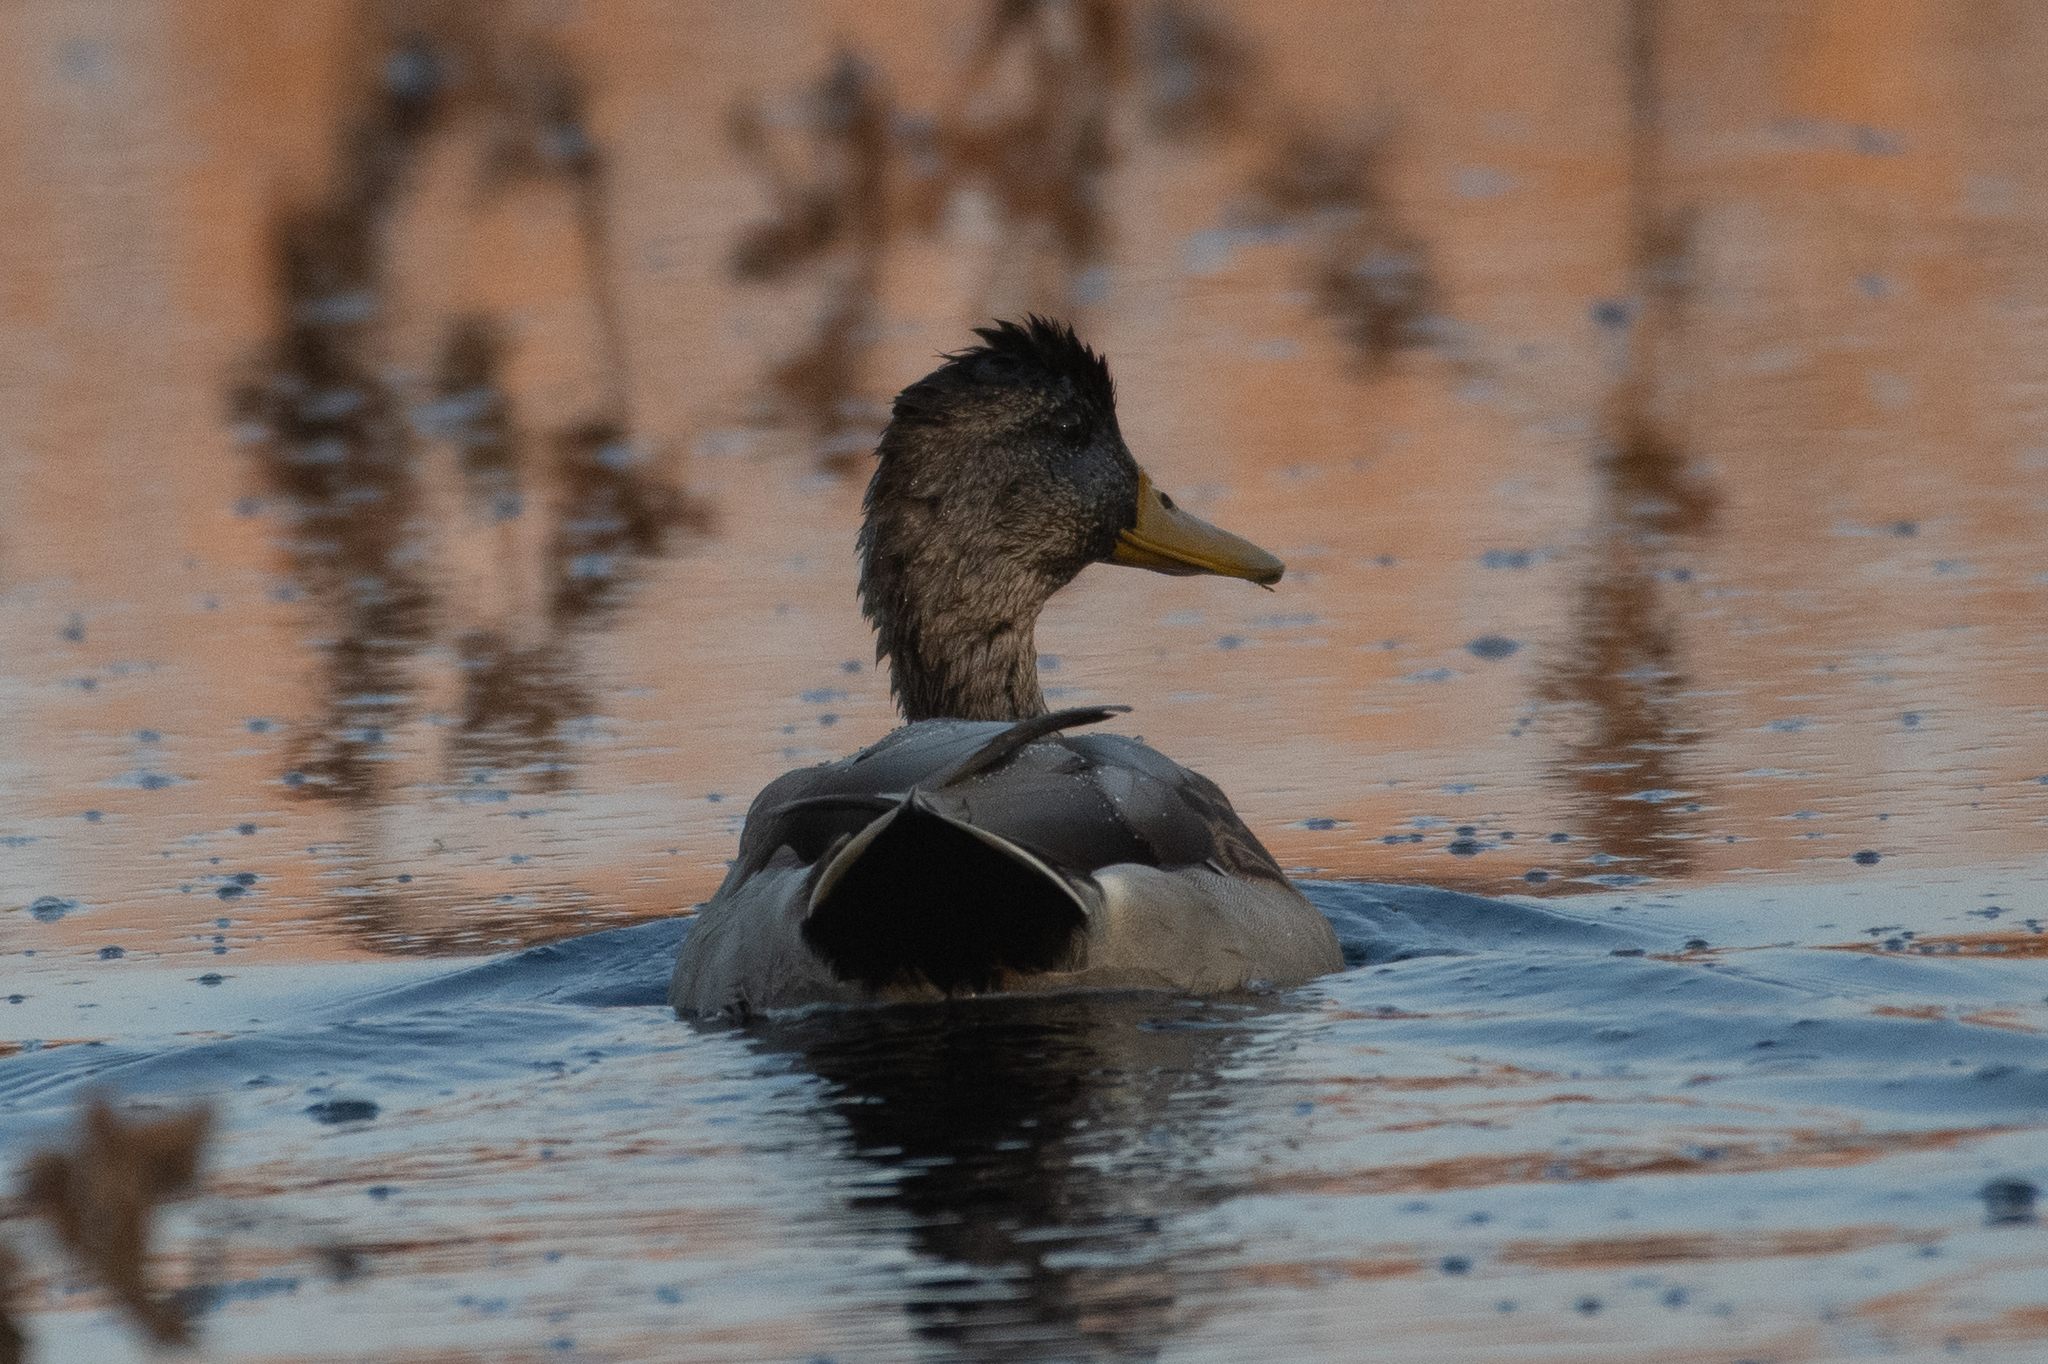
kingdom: Animalia
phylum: Chordata
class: Aves
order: Anseriformes
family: Anatidae
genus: Anas
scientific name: Anas platyrhynchos
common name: Mallard
